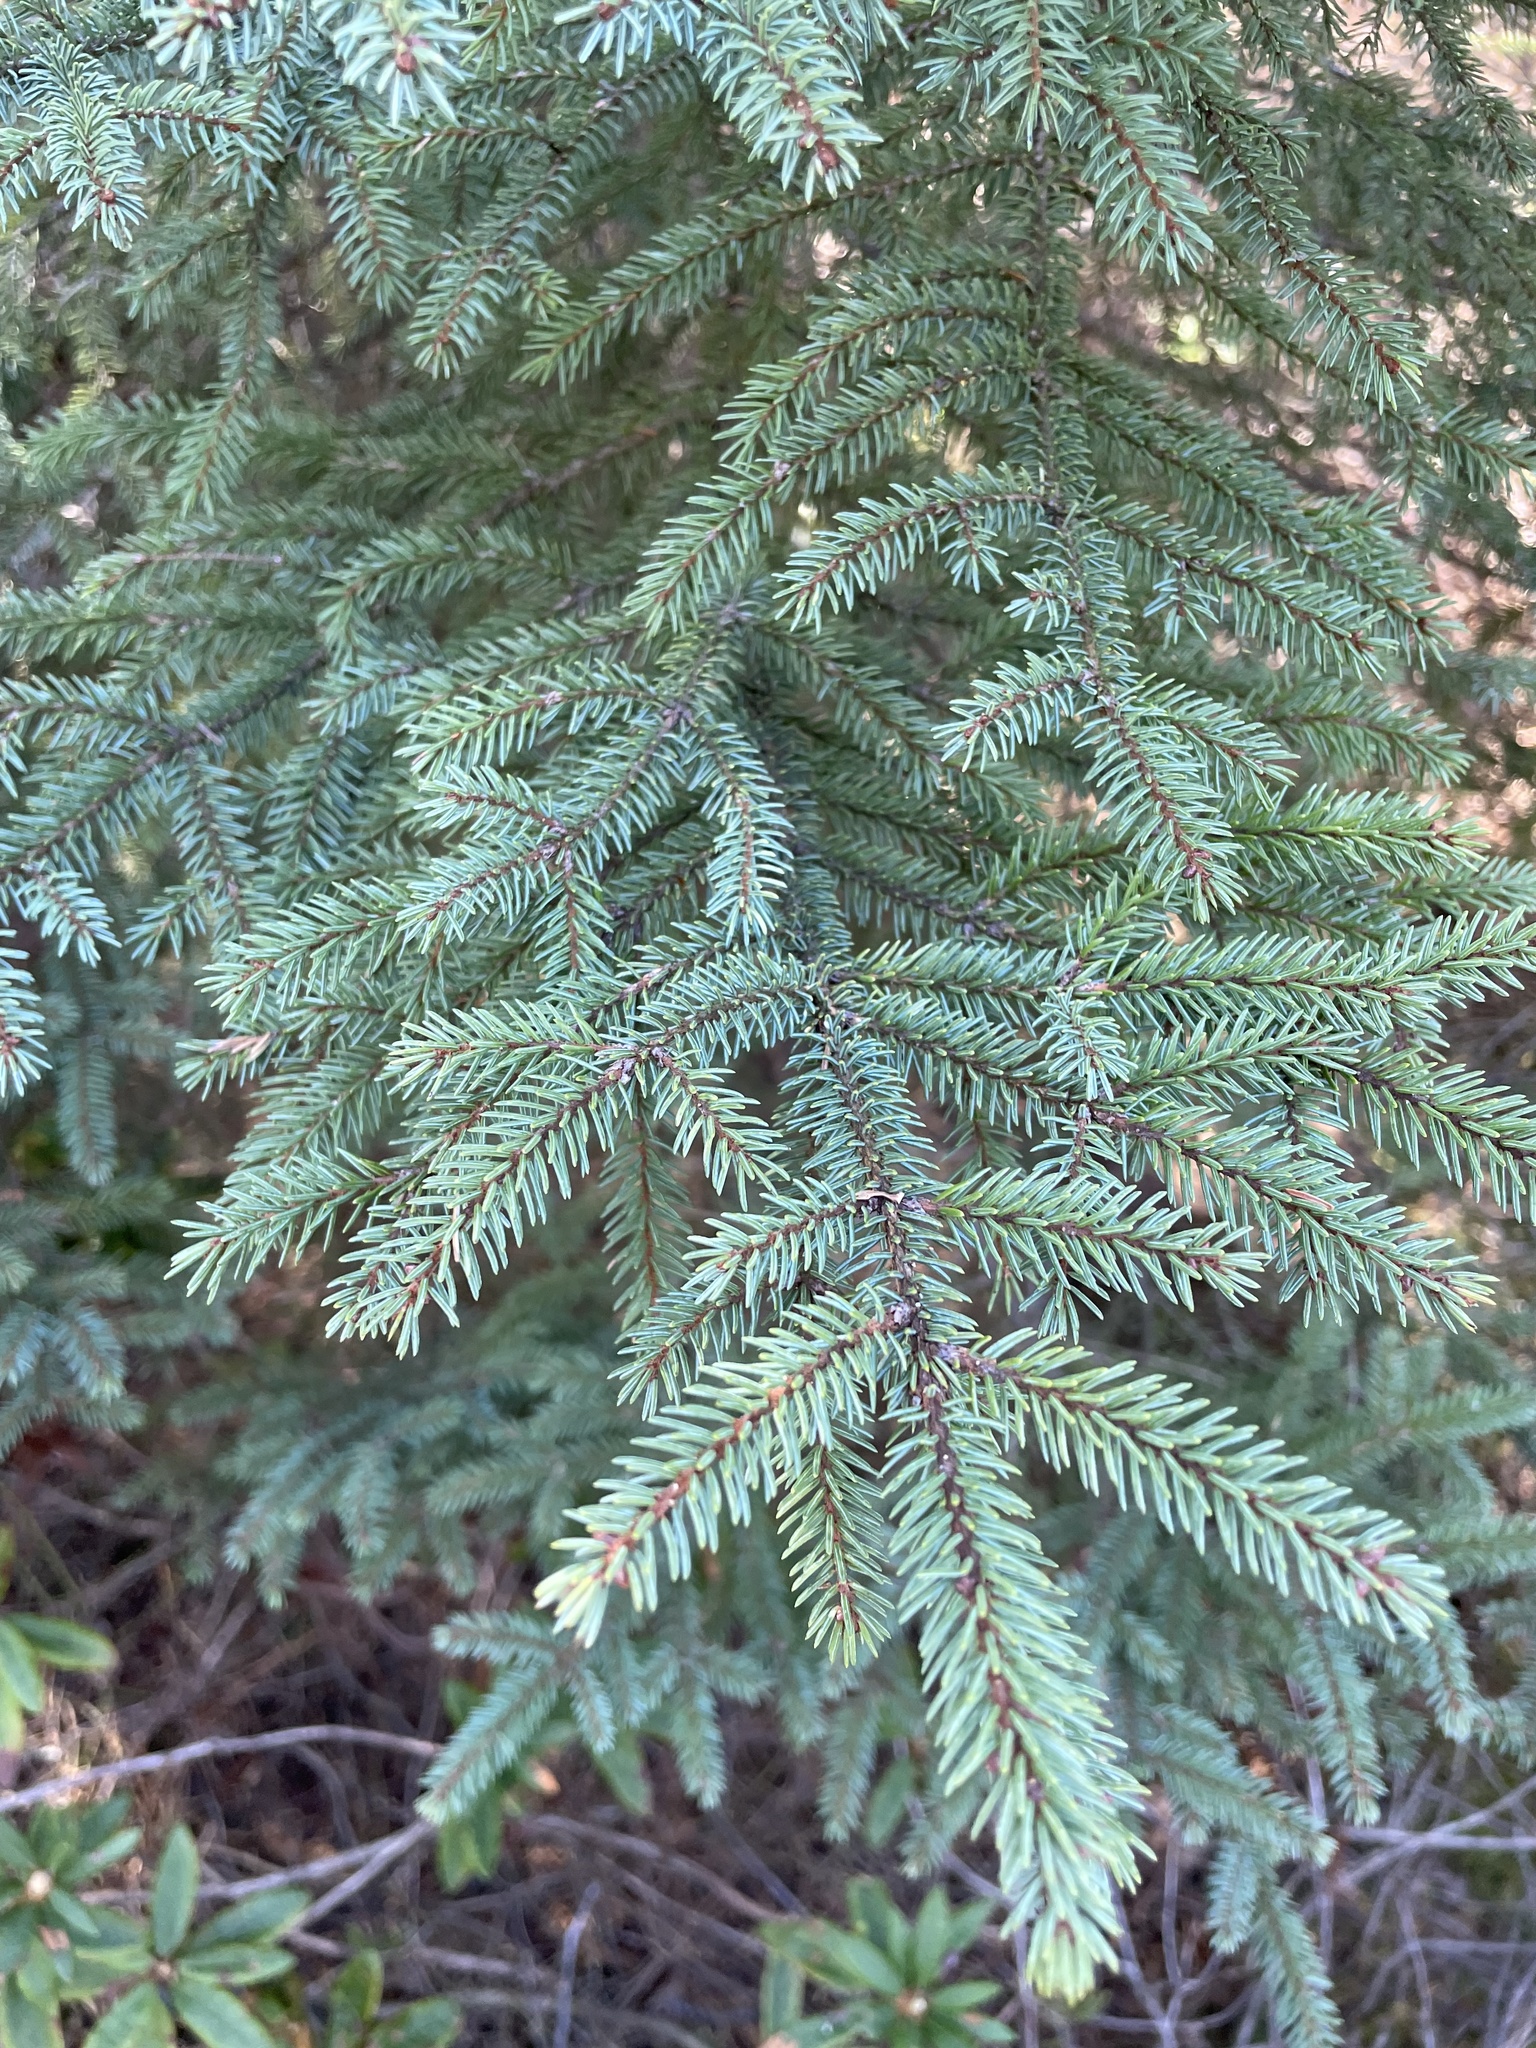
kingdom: Plantae
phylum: Tracheophyta
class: Pinopsida
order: Pinales
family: Pinaceae
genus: Picea
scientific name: Picea mariana
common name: Black spruce
